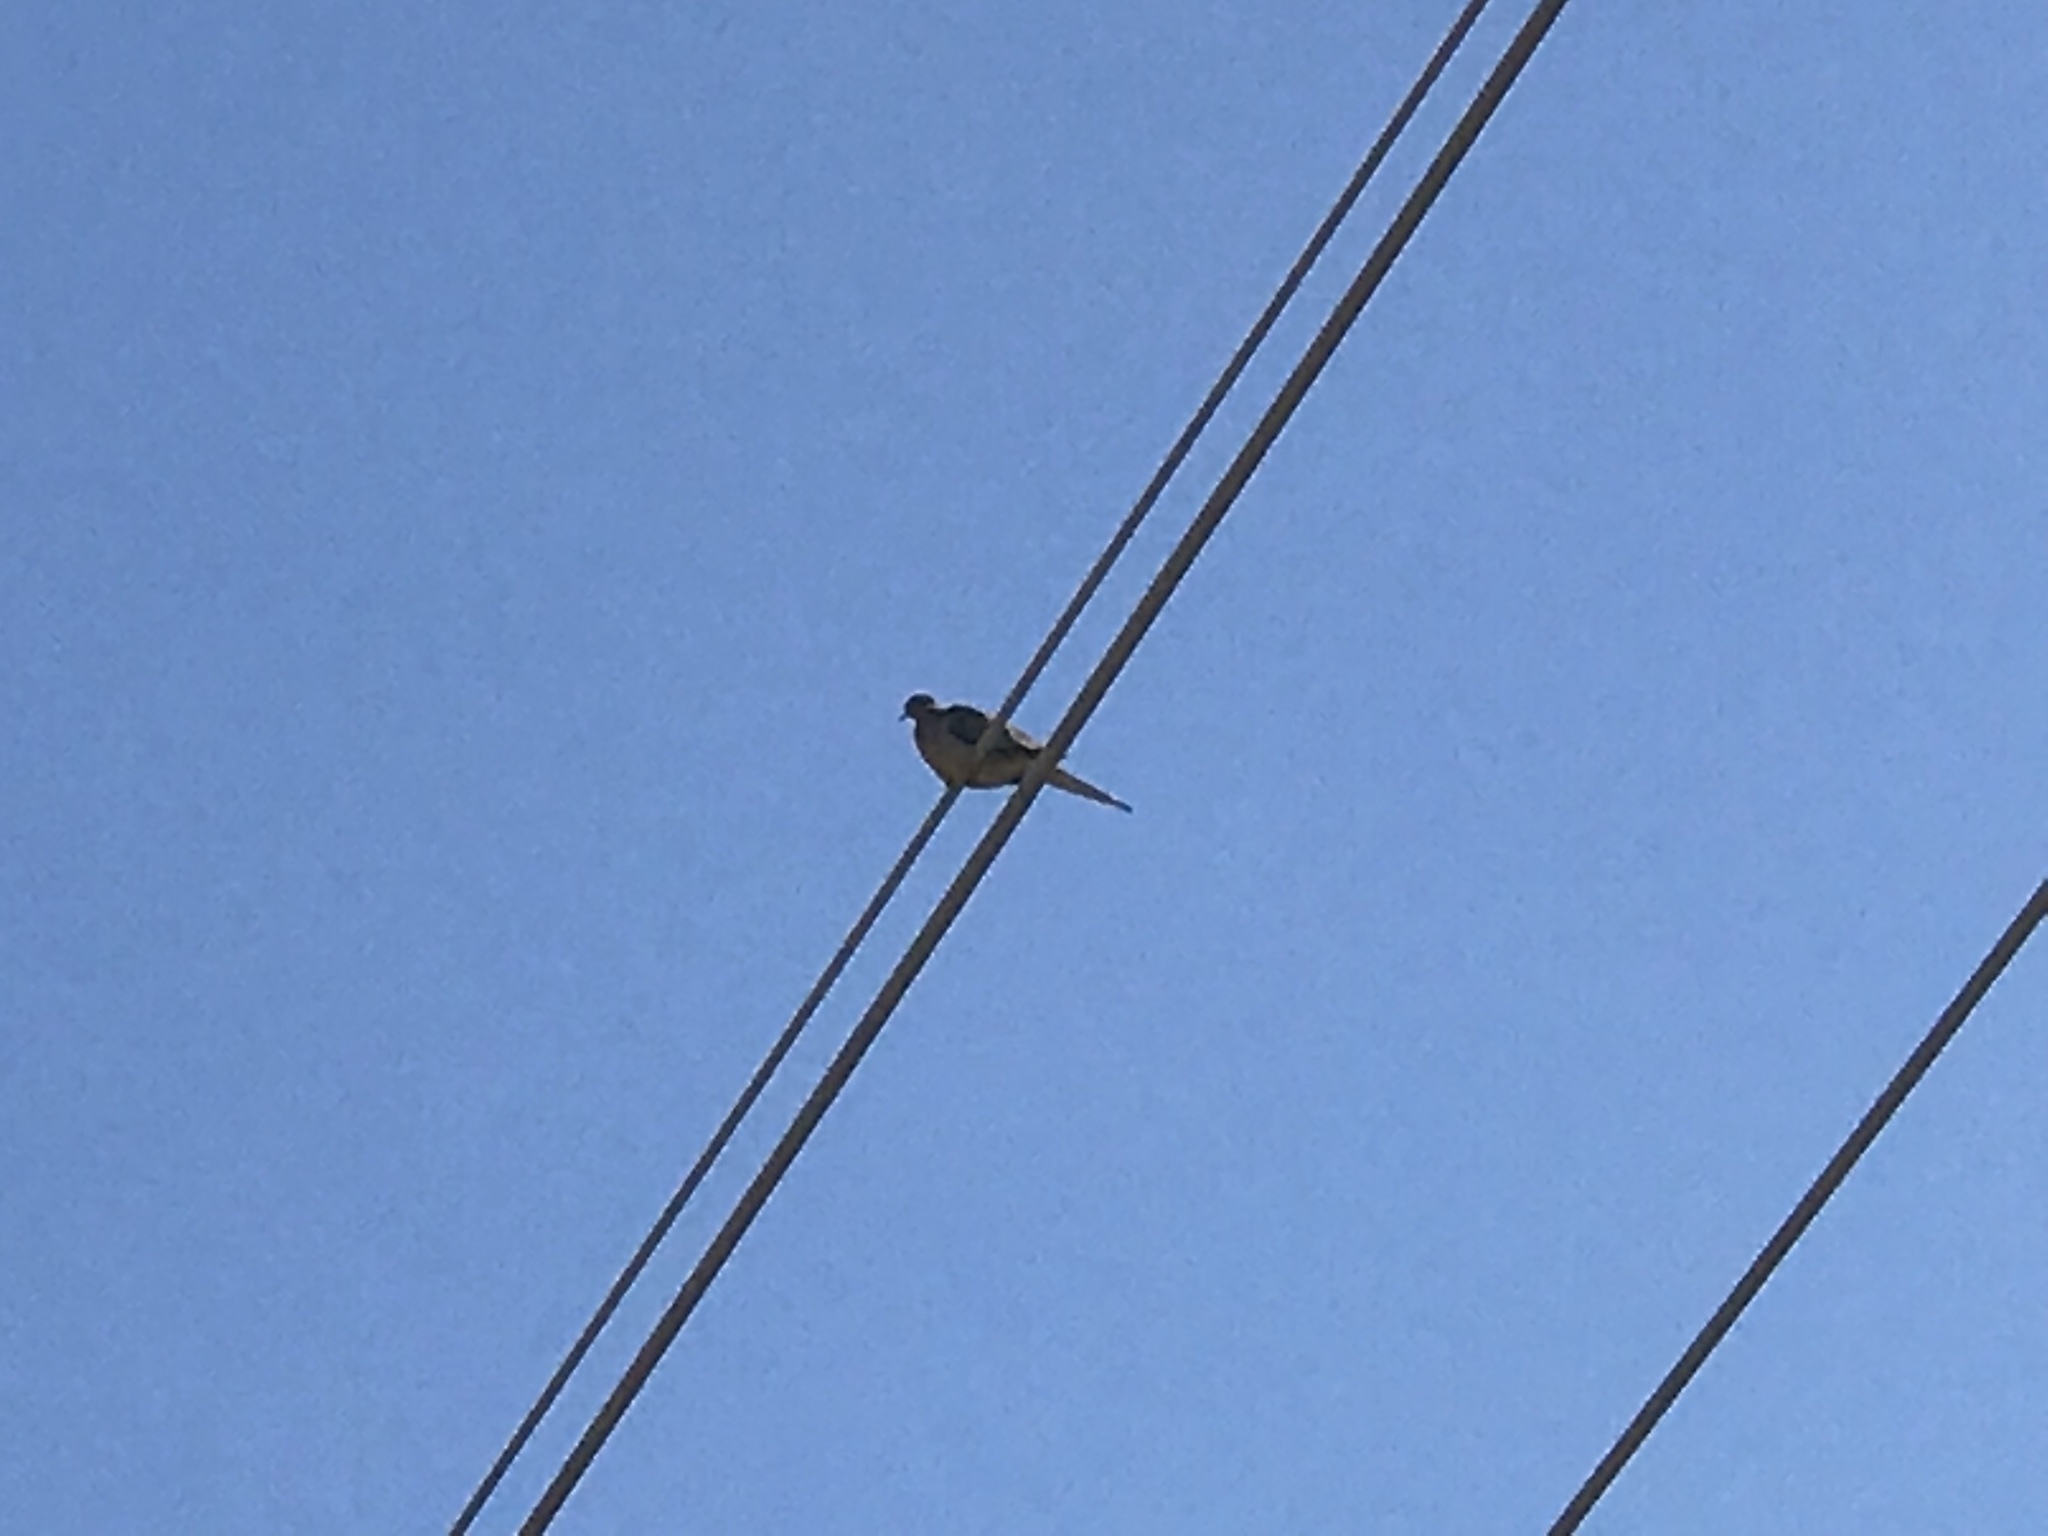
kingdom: Animalia
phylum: Chordata
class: Aves
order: Columbiformes
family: Columbidae
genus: Zenaida
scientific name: Zenaida macroura
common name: Mourning dove
